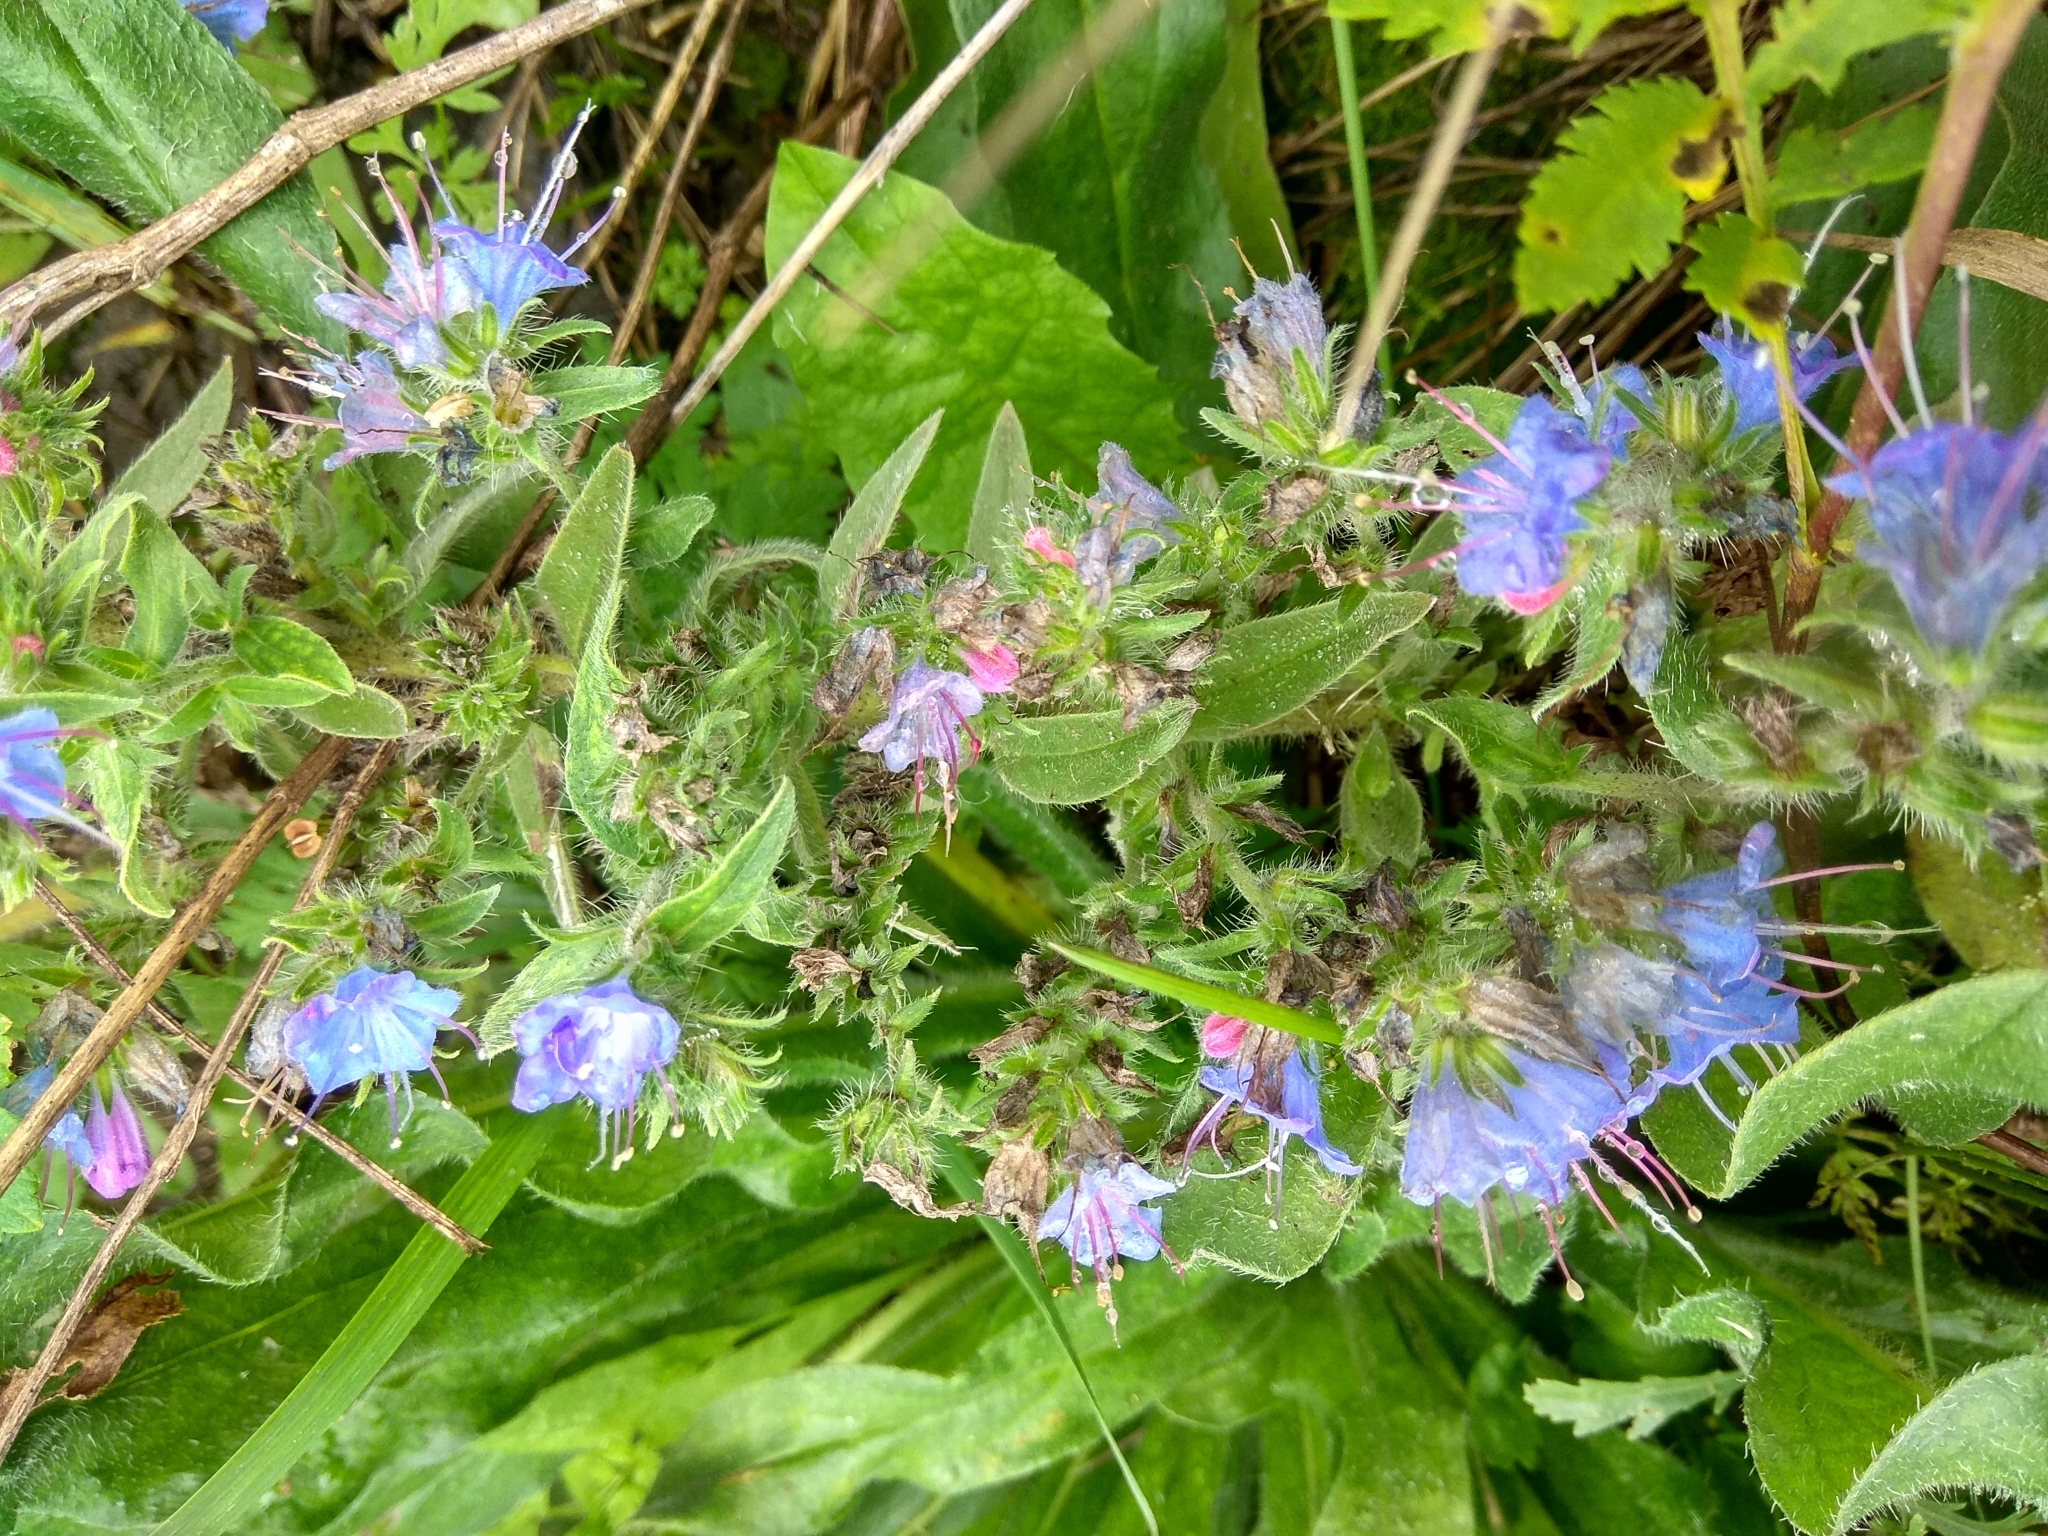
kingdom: Plantae
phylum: Tracheophyta
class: Magnoliopsida
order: Boraginales
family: Boraginaceae
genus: Echium
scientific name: Echium vulgare
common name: Common viper's bugloss
